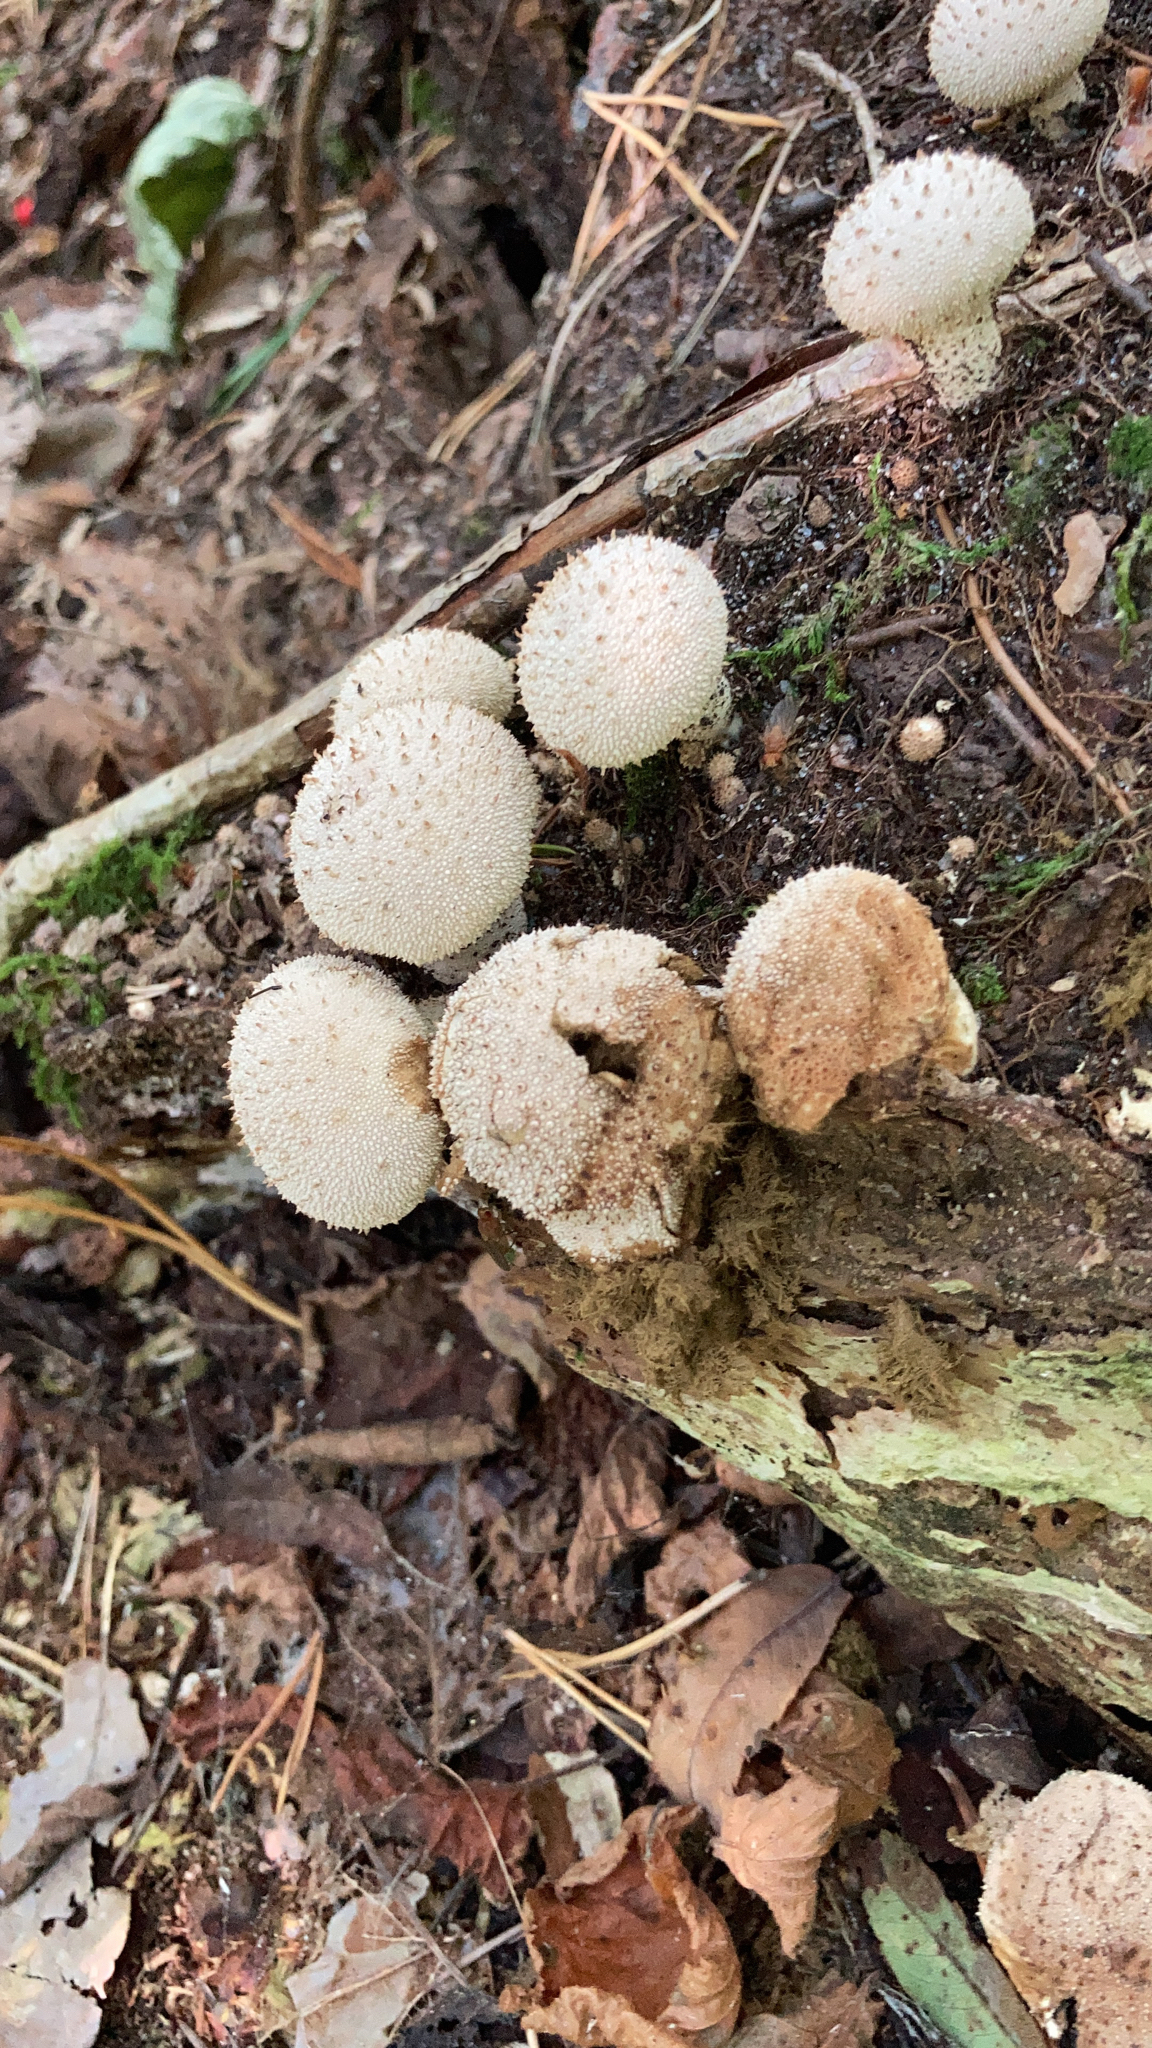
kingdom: Fungi
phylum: Basidiomycota
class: Agaricomycetes
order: Agaricales
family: Lycoperdaceae
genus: Lycoperdon
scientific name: Lycoperdon perlatum
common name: Common puffball
